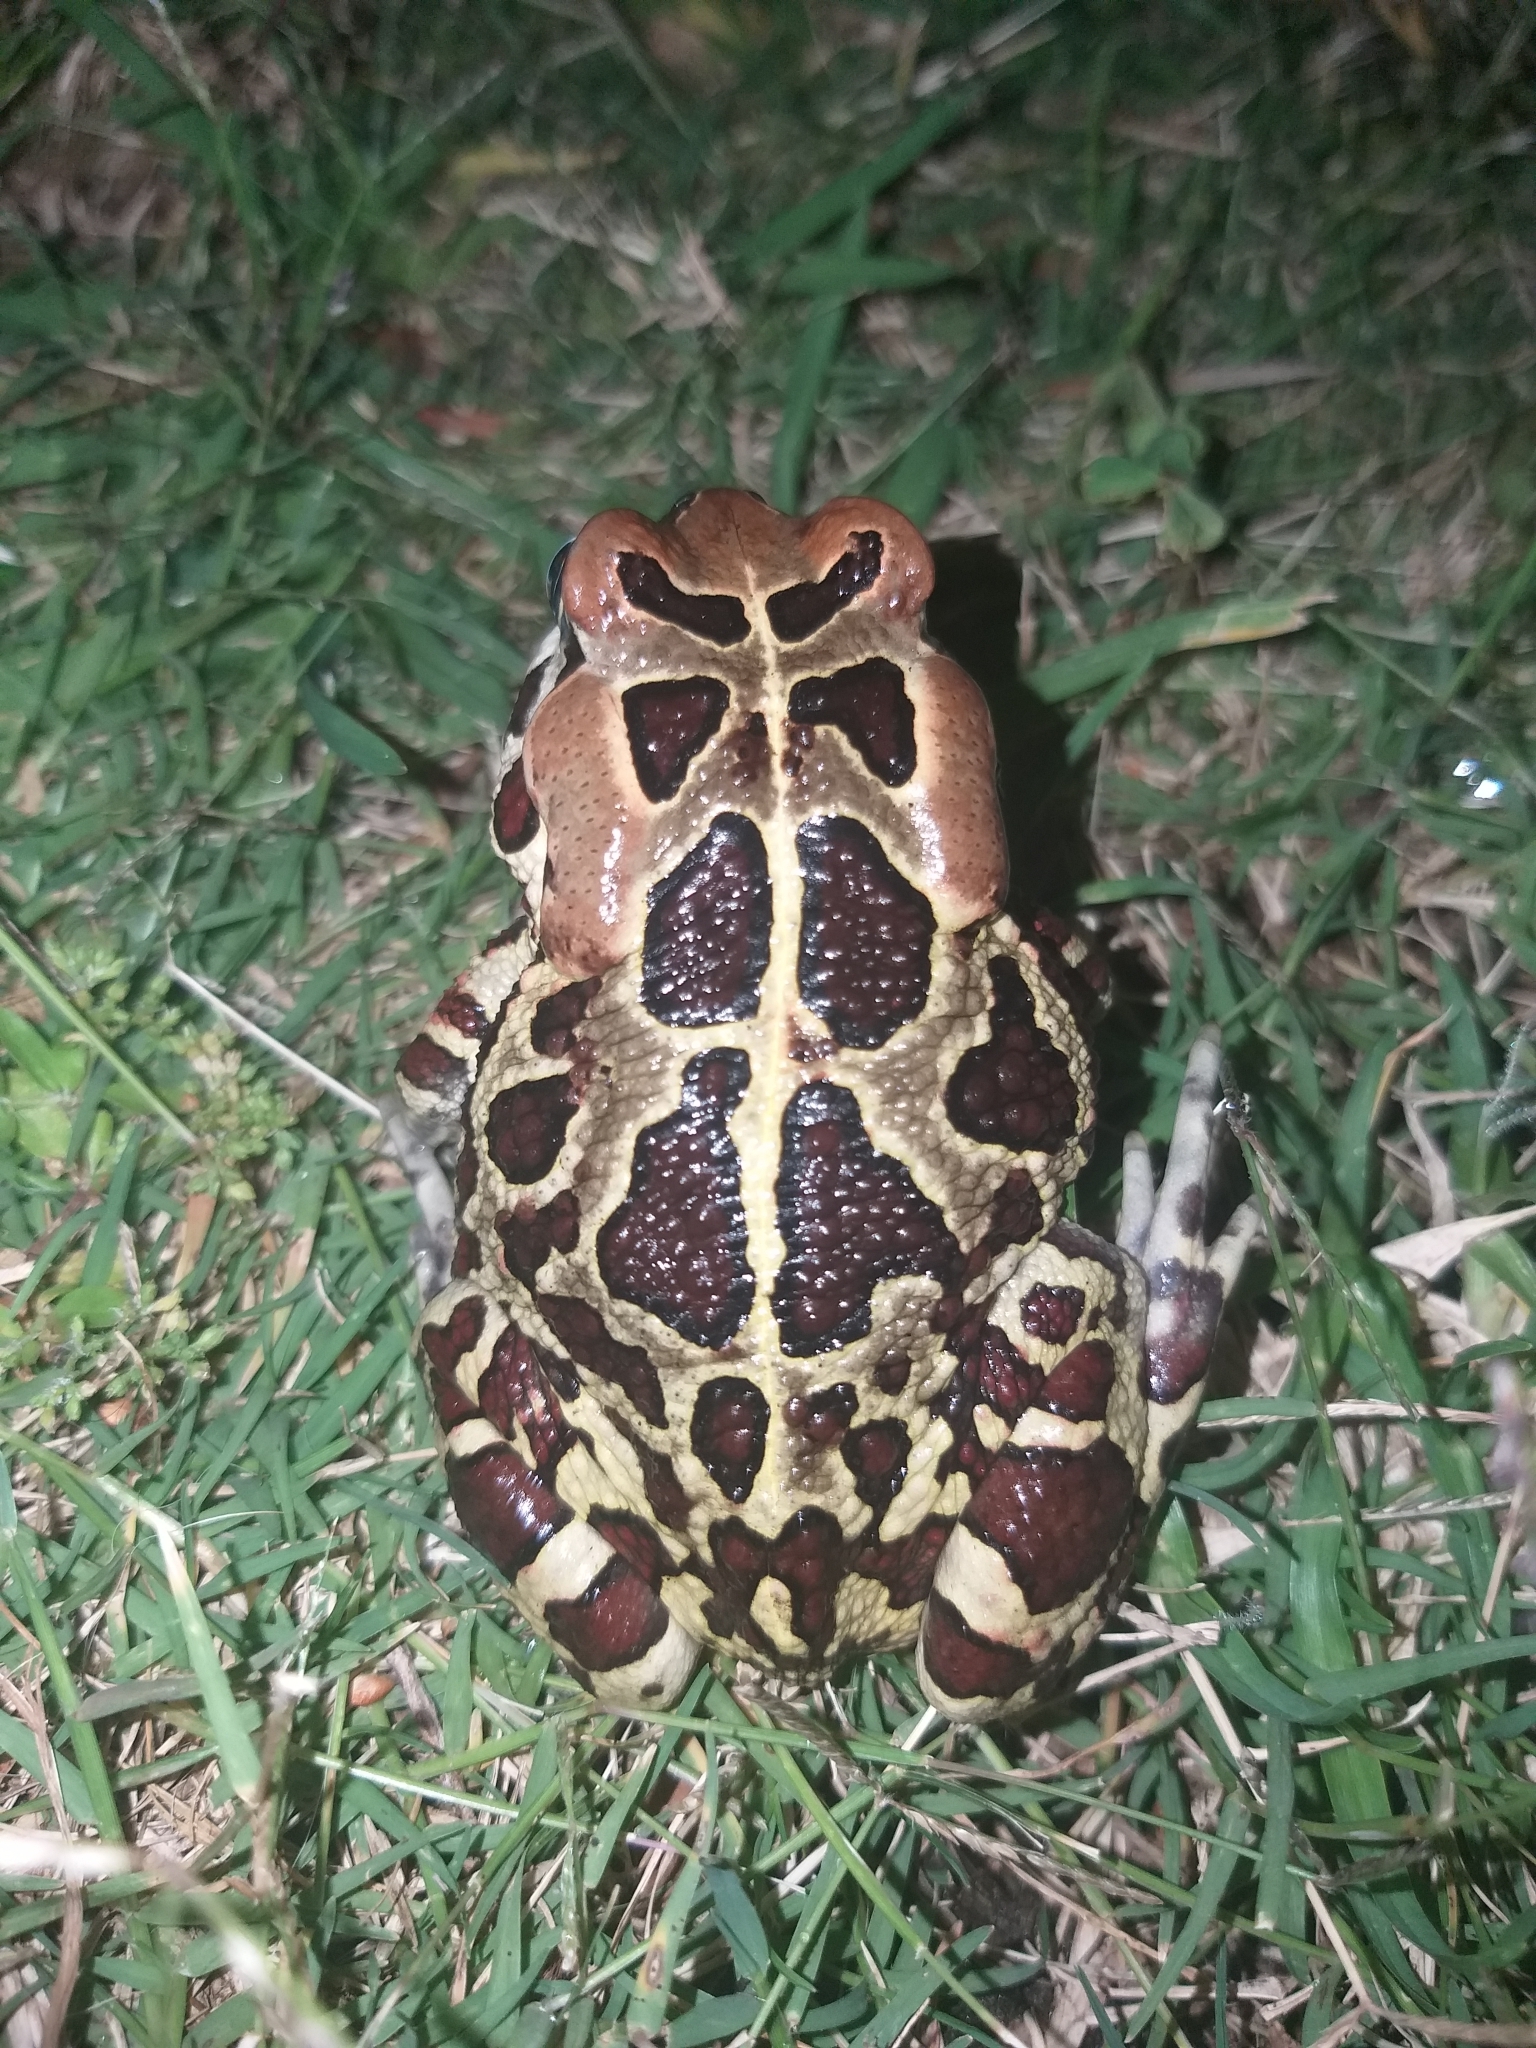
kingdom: Animalia
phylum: Chordata
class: Amphibia
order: Anura
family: Bufonidae
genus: Sclerophrys
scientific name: Sclerophrys pantherina
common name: Panther toad
